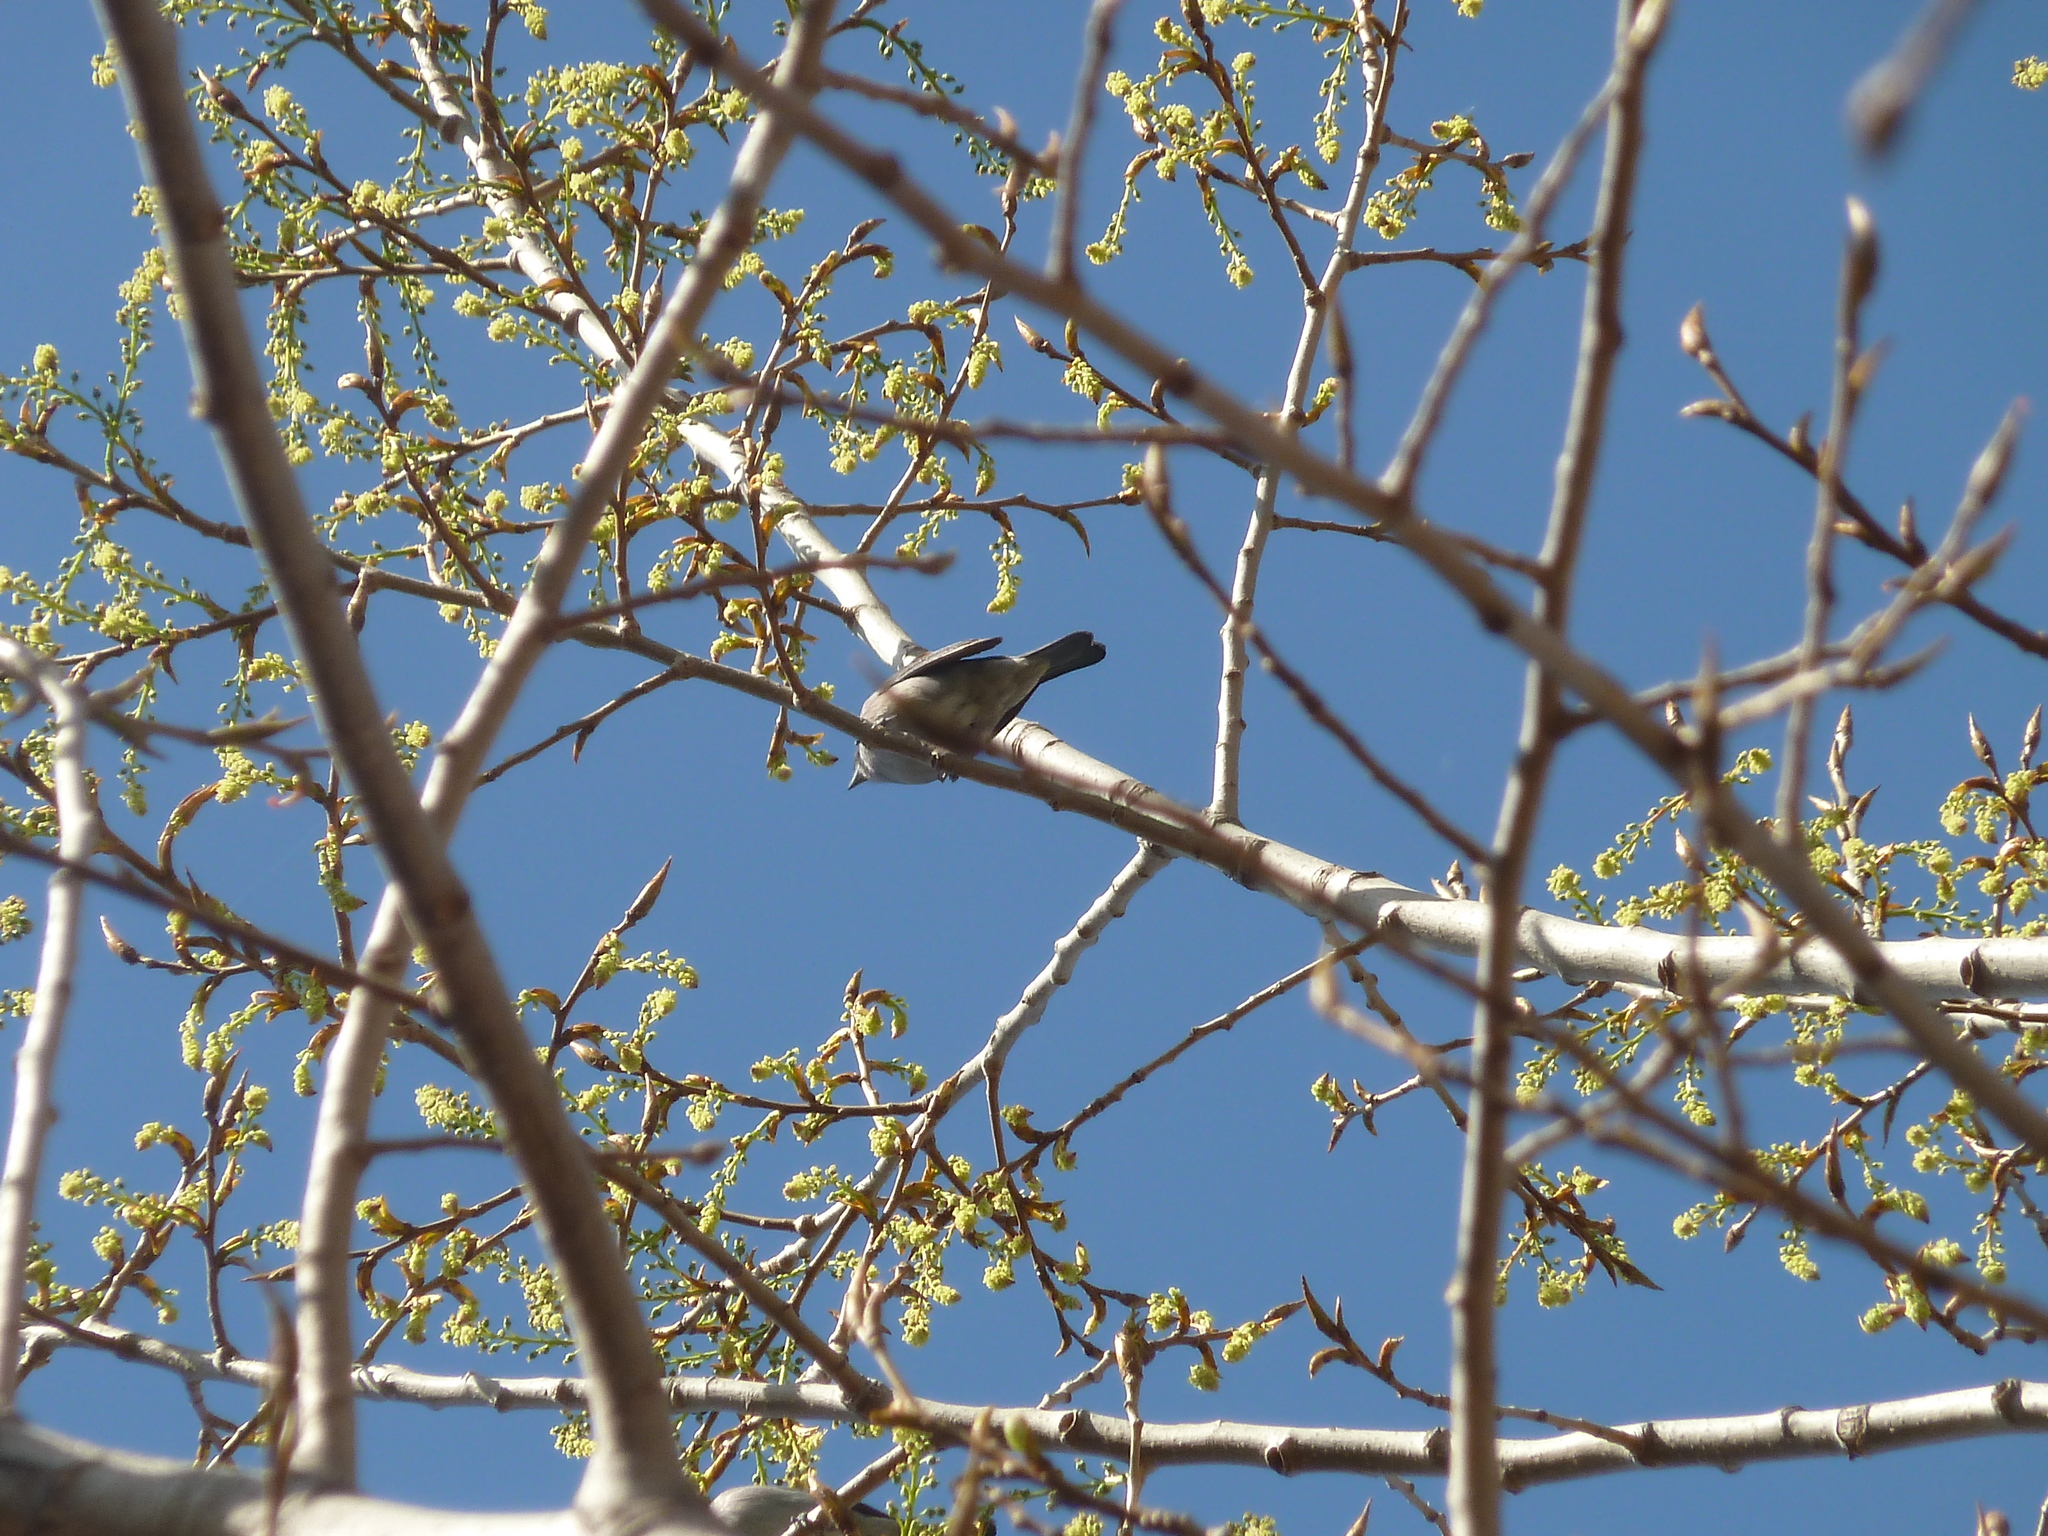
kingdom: Animalia
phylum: Chordata
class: Aves
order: Passeriformes
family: Thraupidae
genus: Thraupis
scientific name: Thraupis sayaca
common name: Sayaca tanager
